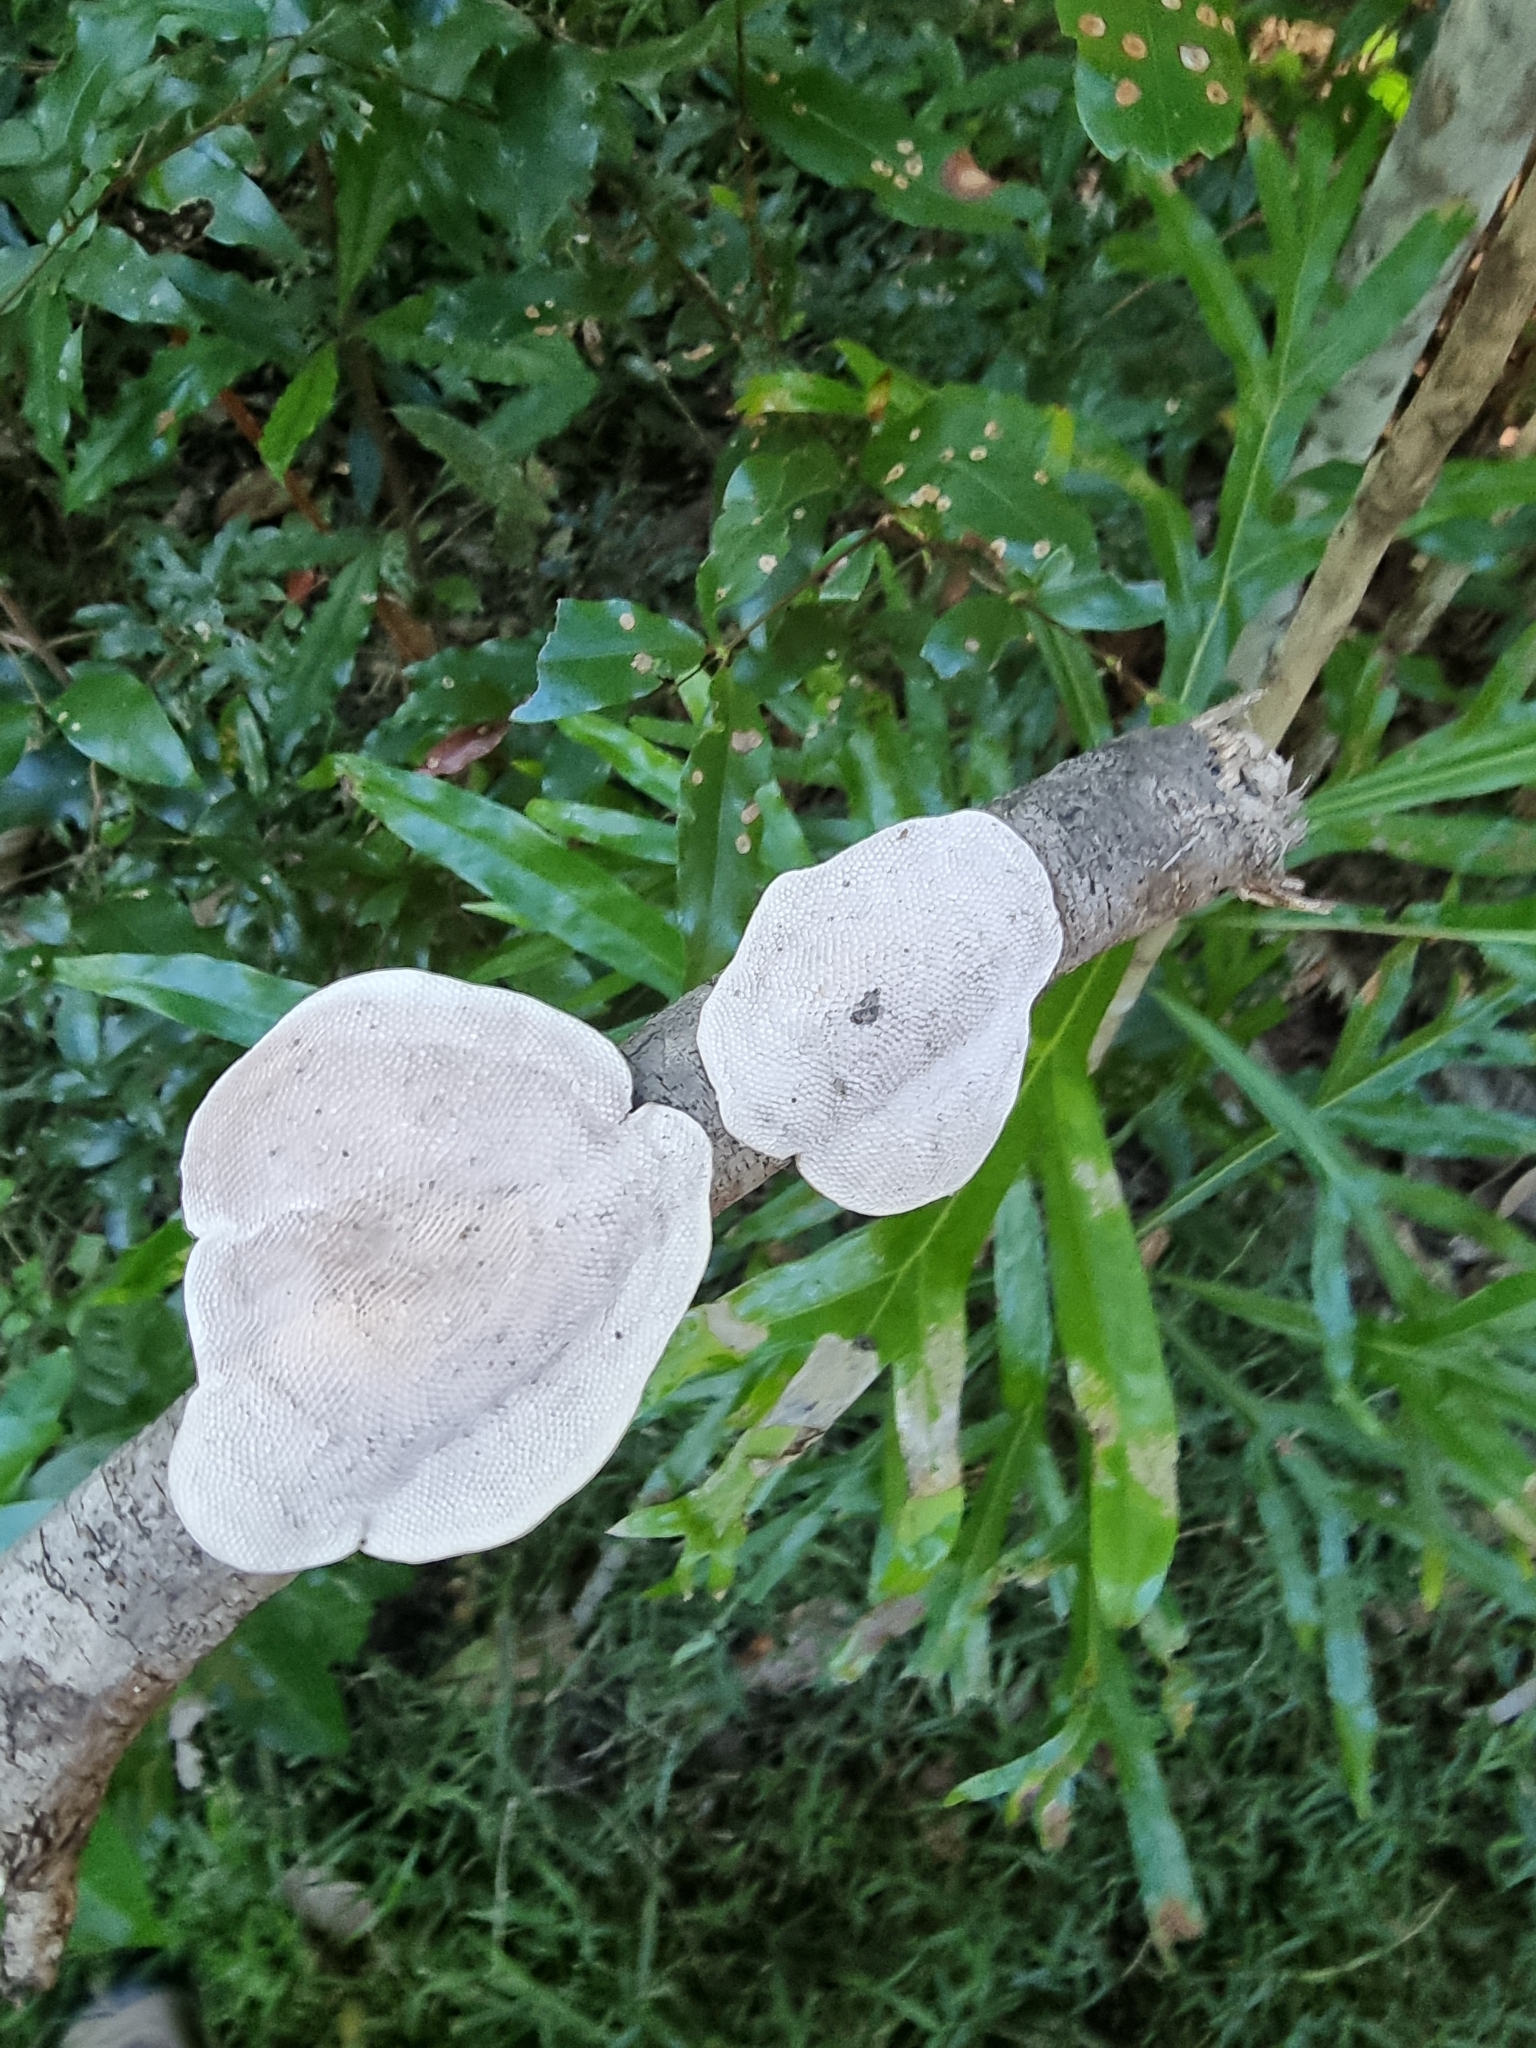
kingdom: Fungi
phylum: Basidiomycota
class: Agaricomycetes
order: Polyporales
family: Polyporaceae
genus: Pseudofavolus
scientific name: Pseudofavolus tenuis
